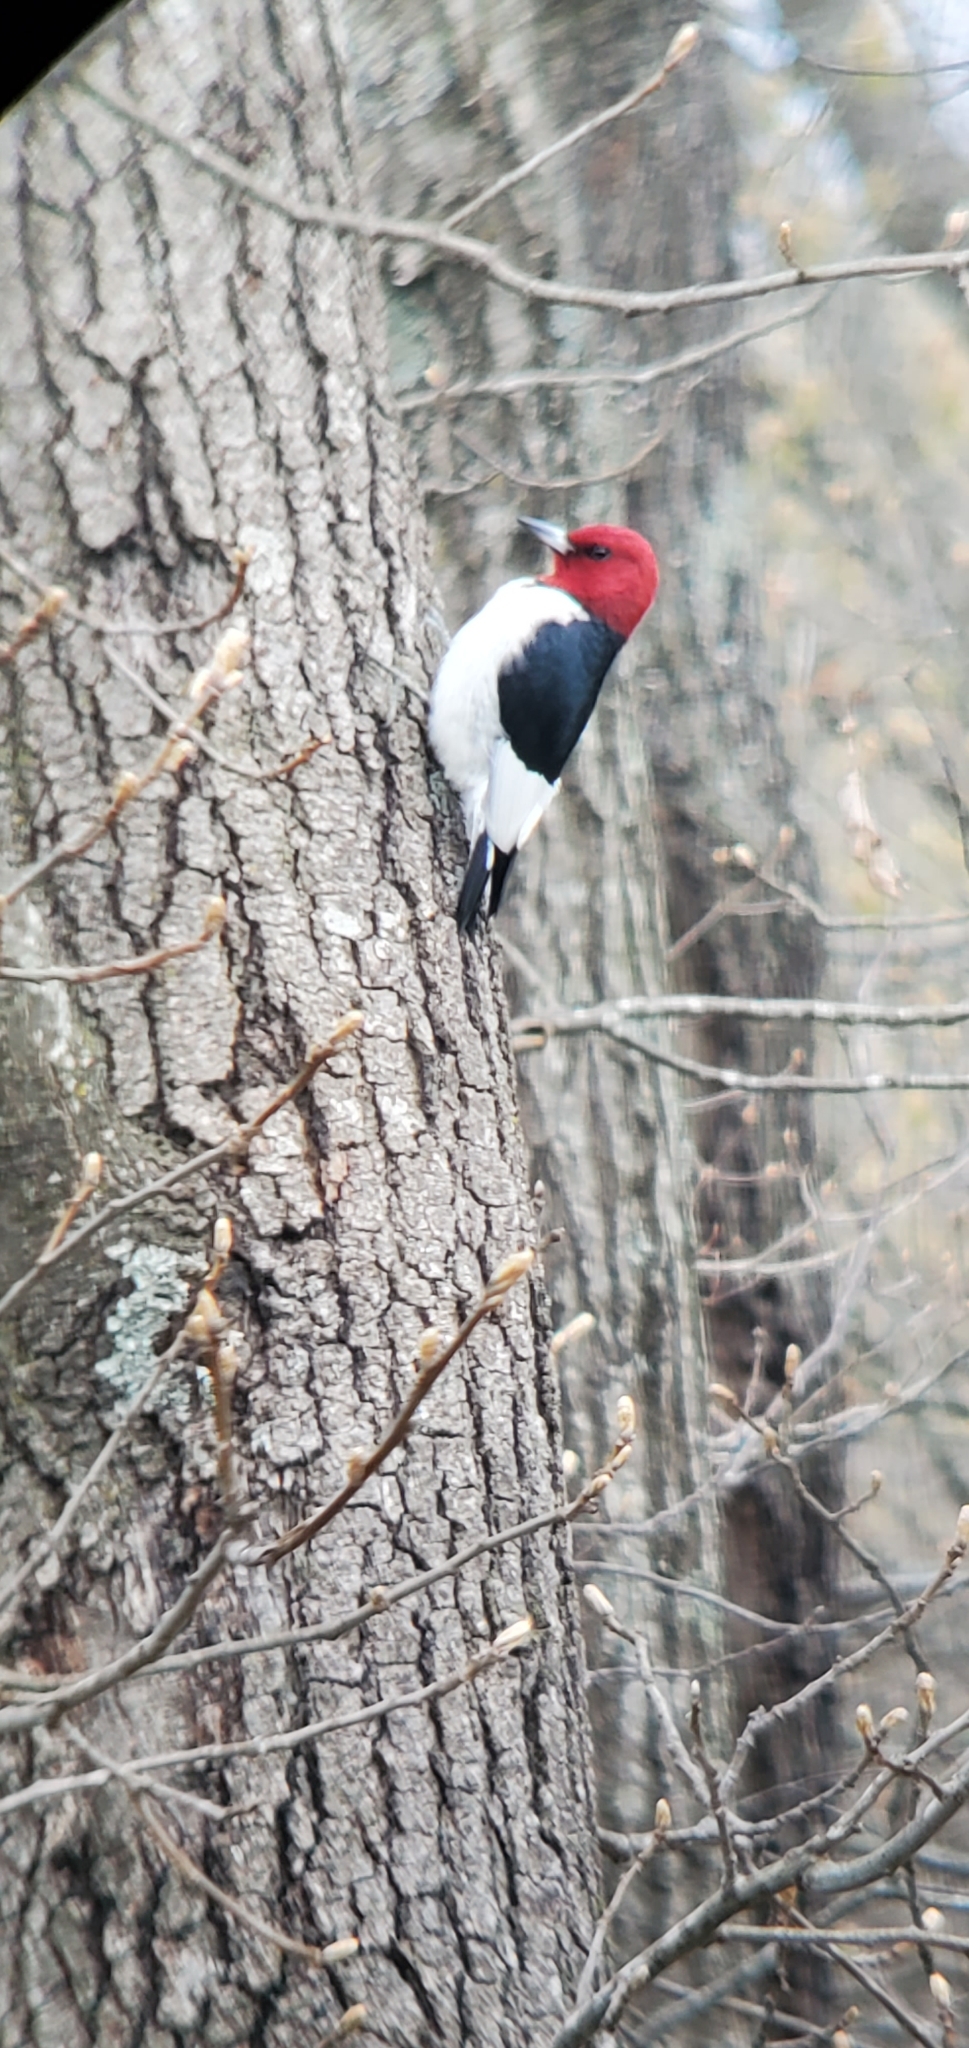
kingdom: Animalia
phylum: Chordata
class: Aves
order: Piciformes
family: Picidae
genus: Melanerpes
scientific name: Melanerpes erythrocephalus
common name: Red-headed woodpecker
